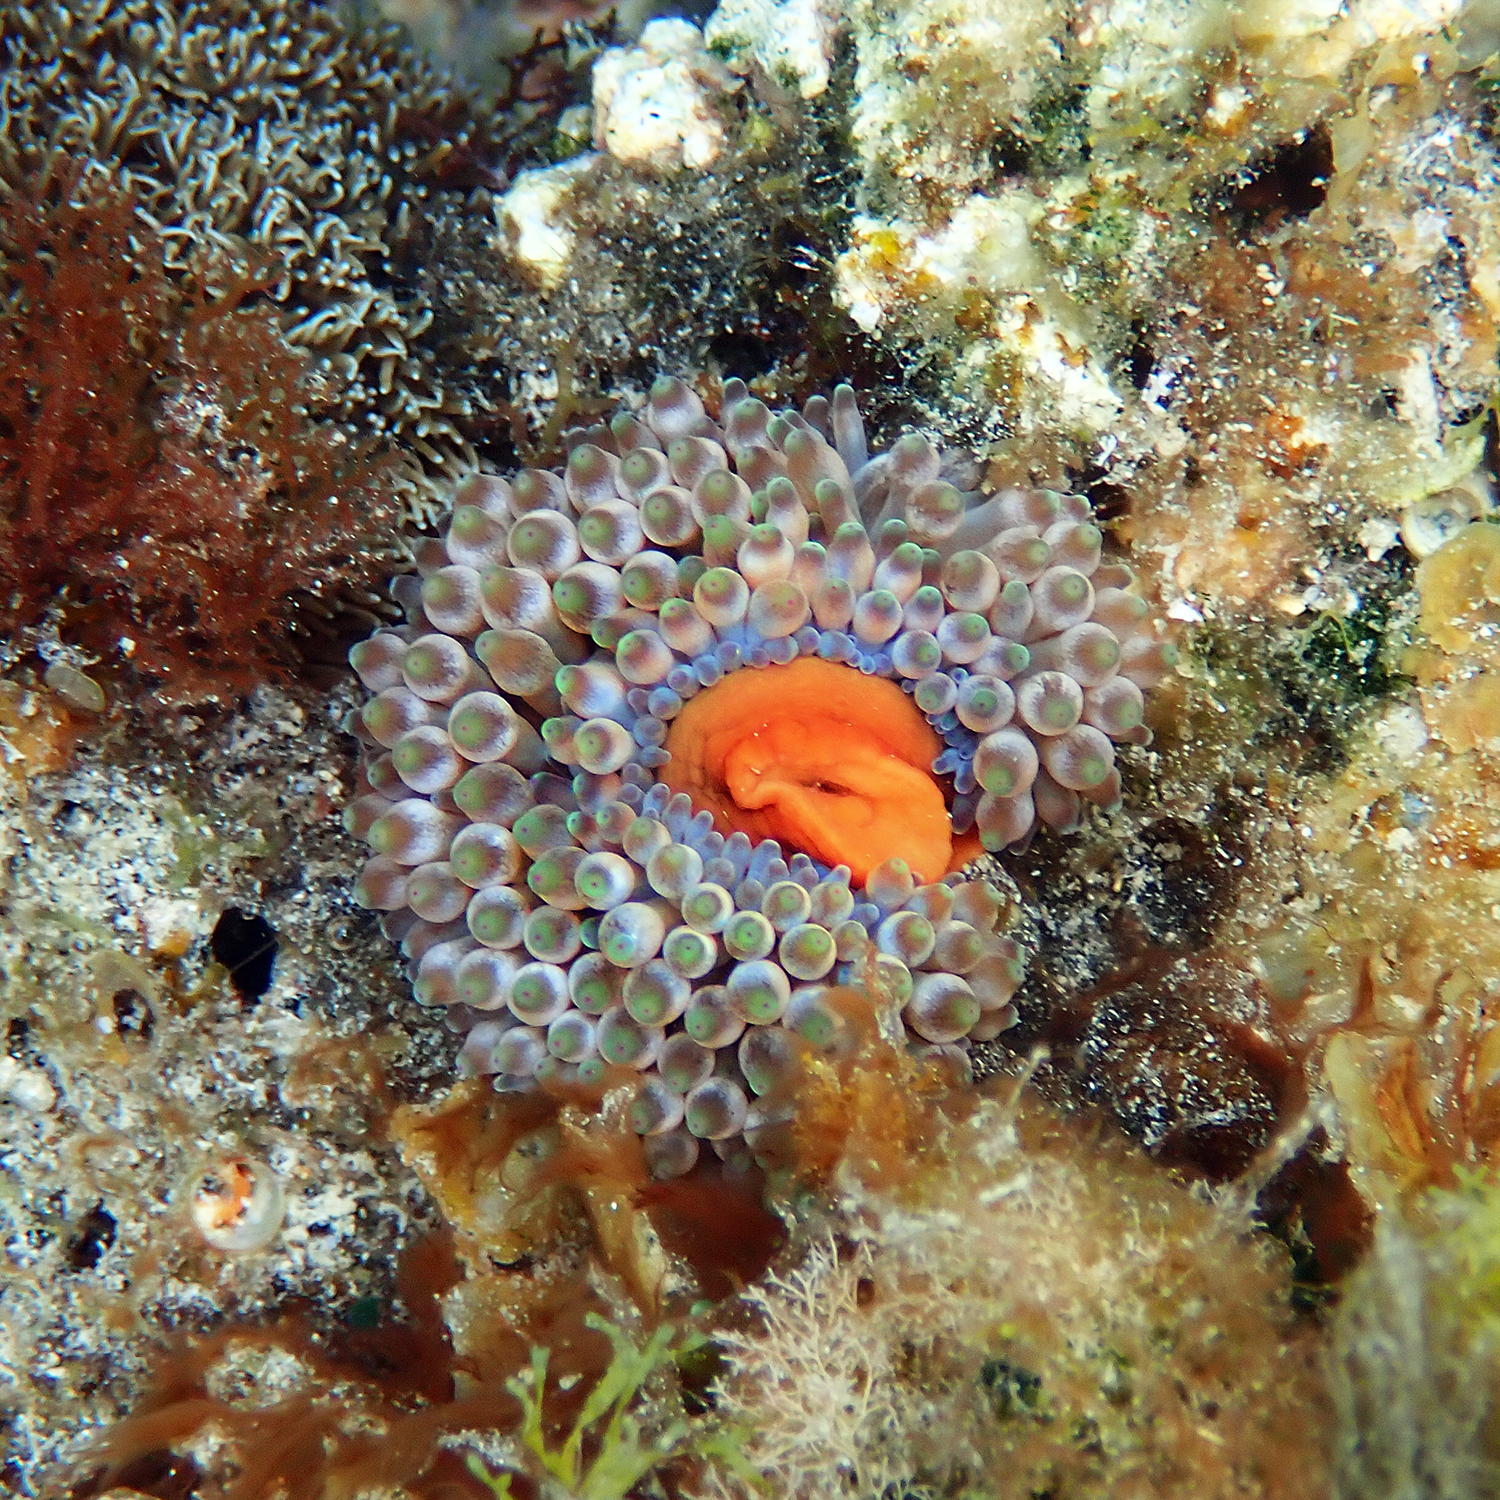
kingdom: Animalia
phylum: Cnidaria
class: Anthozoa
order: Actiniaria
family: Actiniidae
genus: Entacmaea
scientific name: Entacmaea quadricolor
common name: Bulb tentacle sea anemone
